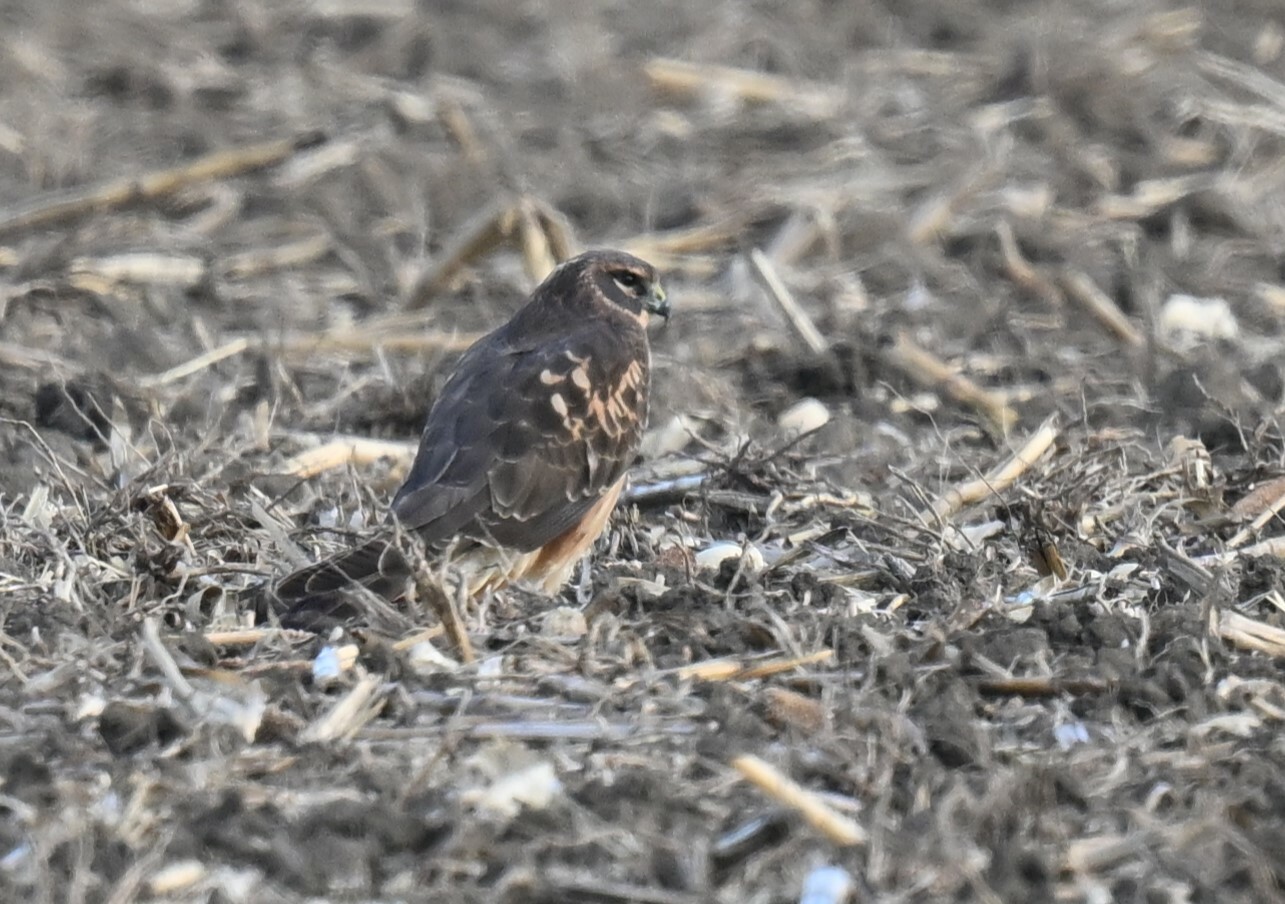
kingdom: Animalia
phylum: Chordata
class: Aves
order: Accipitriformes
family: Accipitridae
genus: Circus
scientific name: Circus cyaneus
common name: Hen harrier
